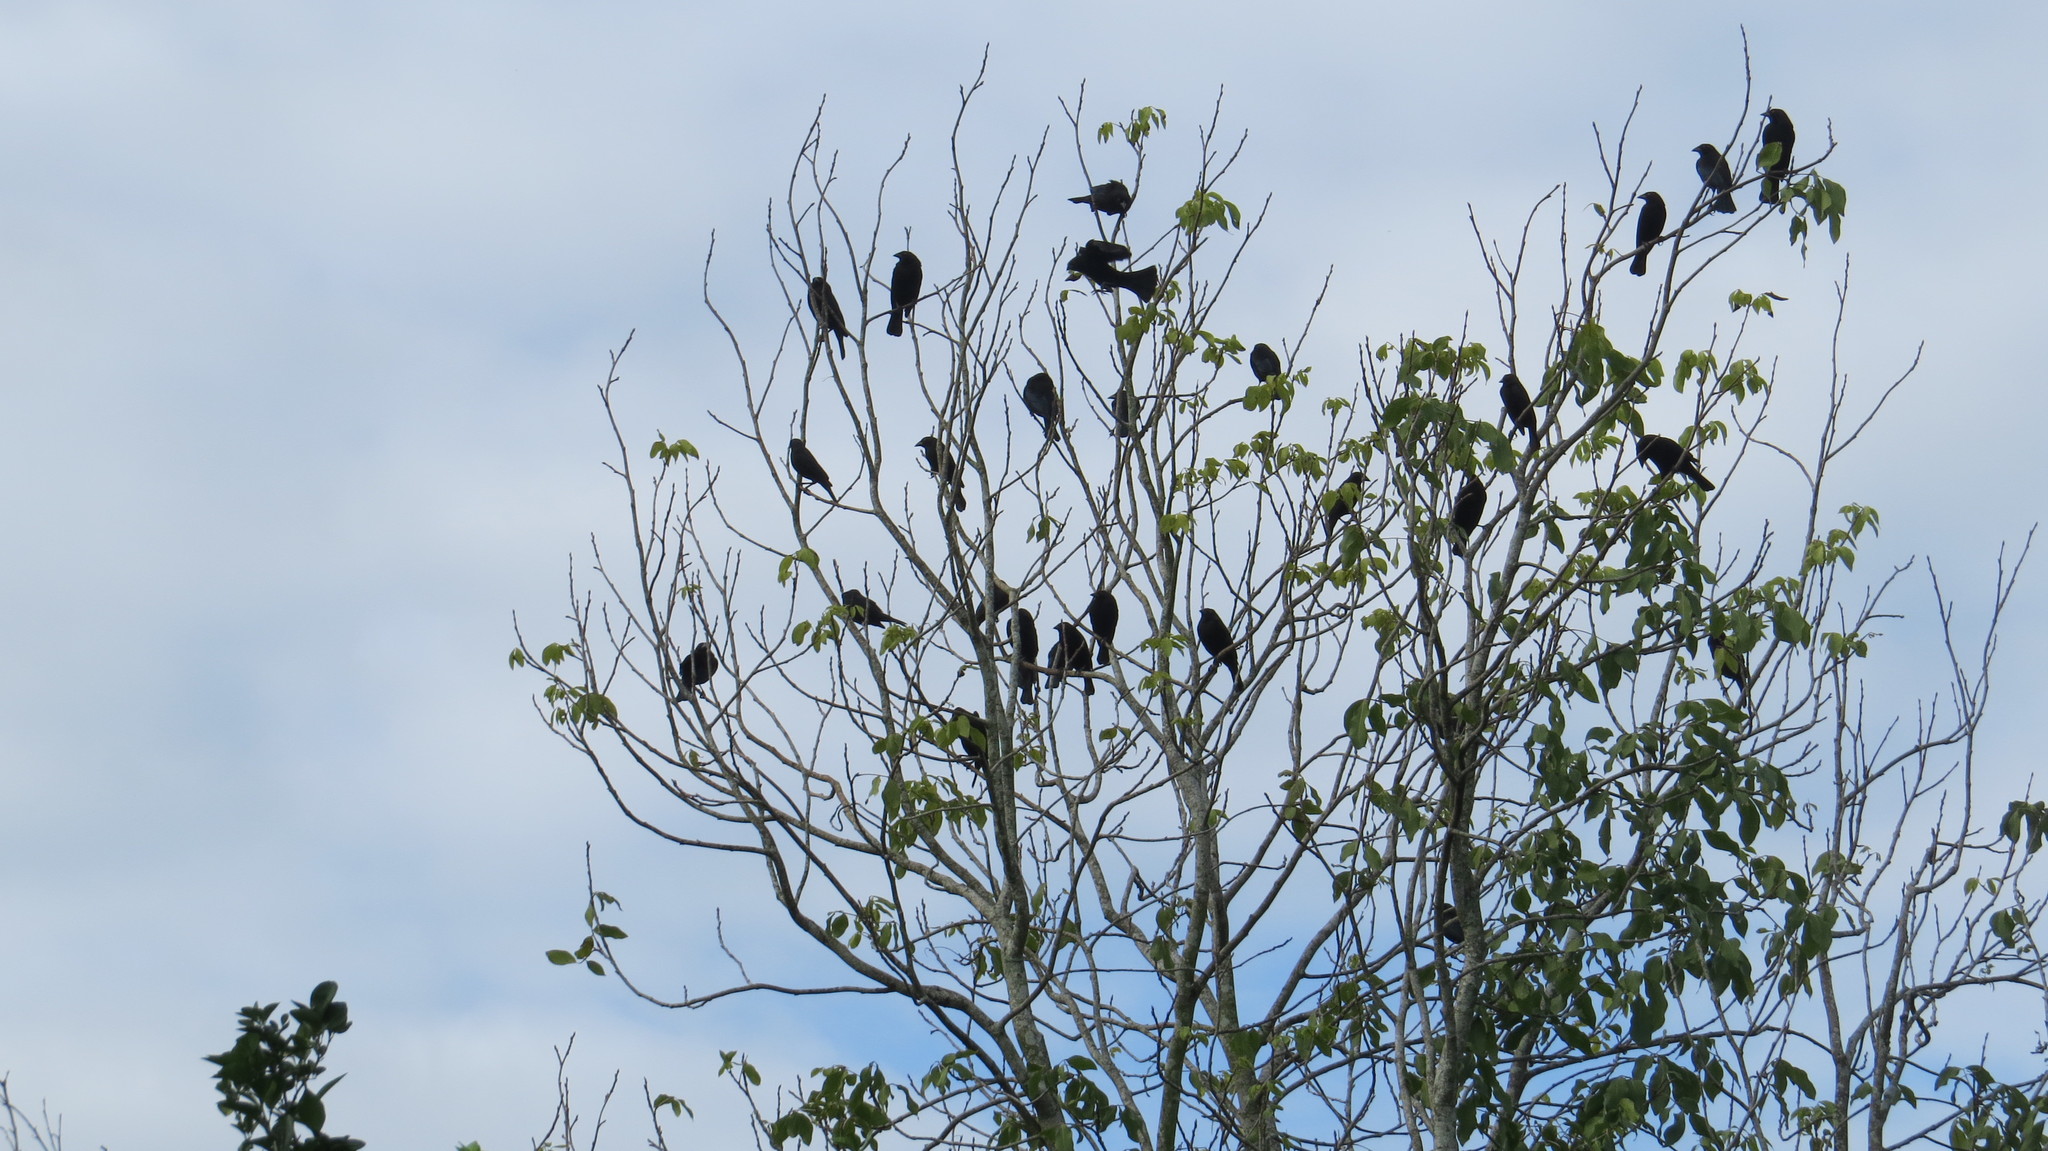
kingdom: Animalia
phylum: Chordata
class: Aves
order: Passeriformes
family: Icteridae
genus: Molothrus
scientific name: Molothrus aeneus
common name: Bronzed cowbird
